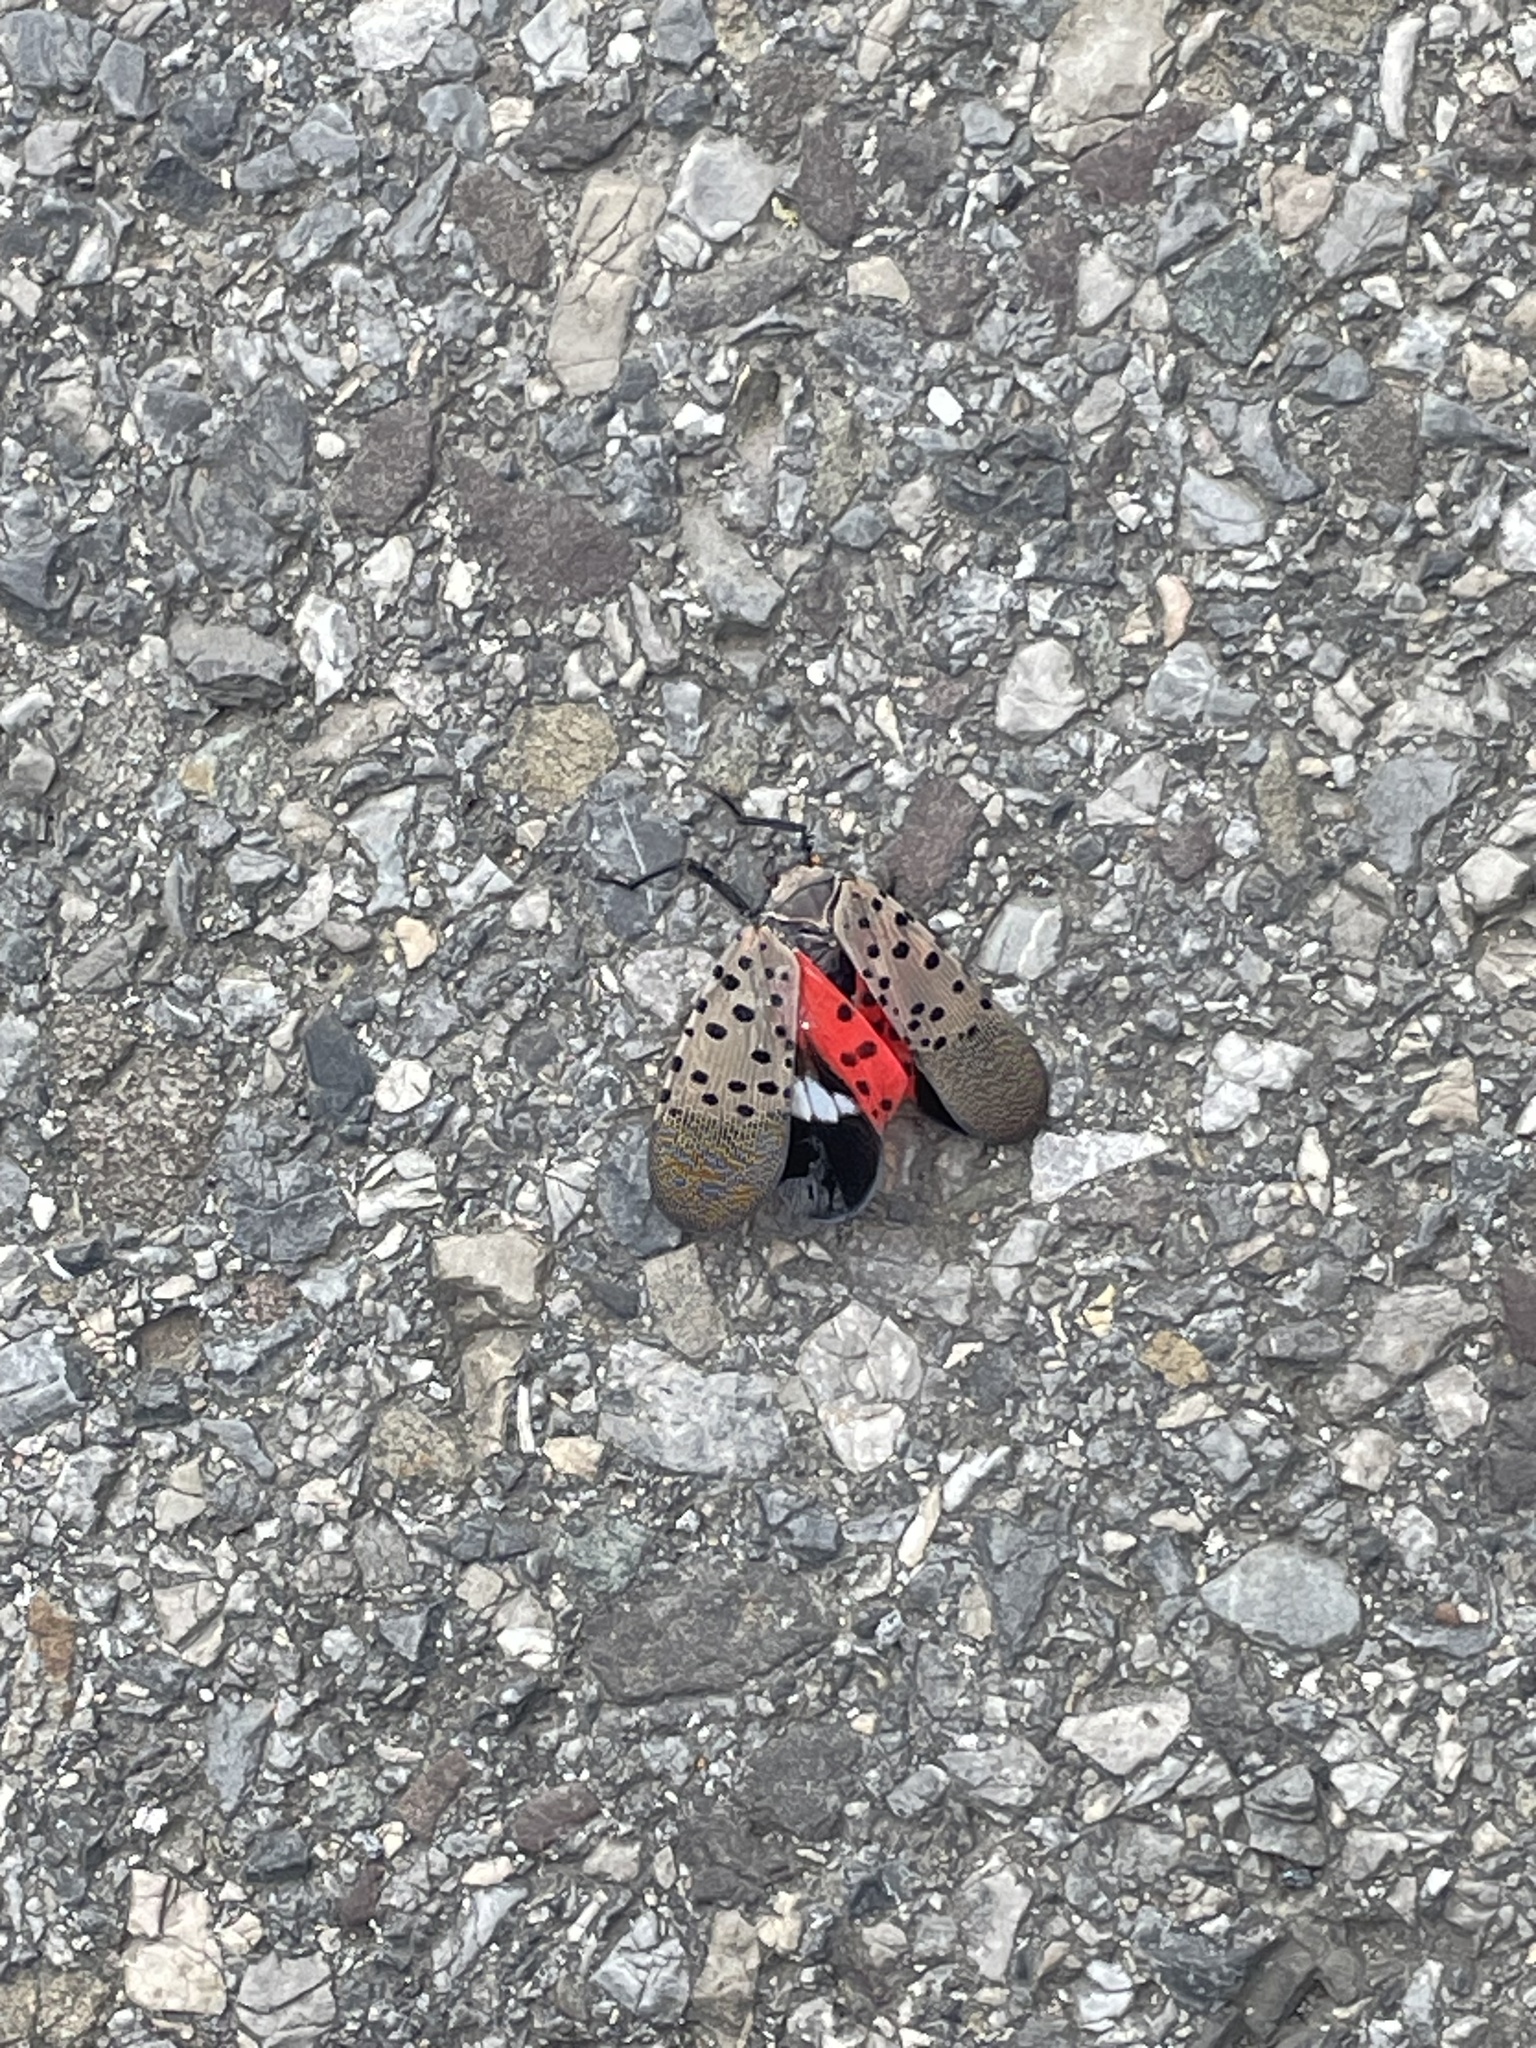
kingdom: Animalia
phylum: Arthropoda
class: Insecta
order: Hemiptera
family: Fulgoridae
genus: Lycorma
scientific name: Lycorma delicatula
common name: Spotted lanternfly
